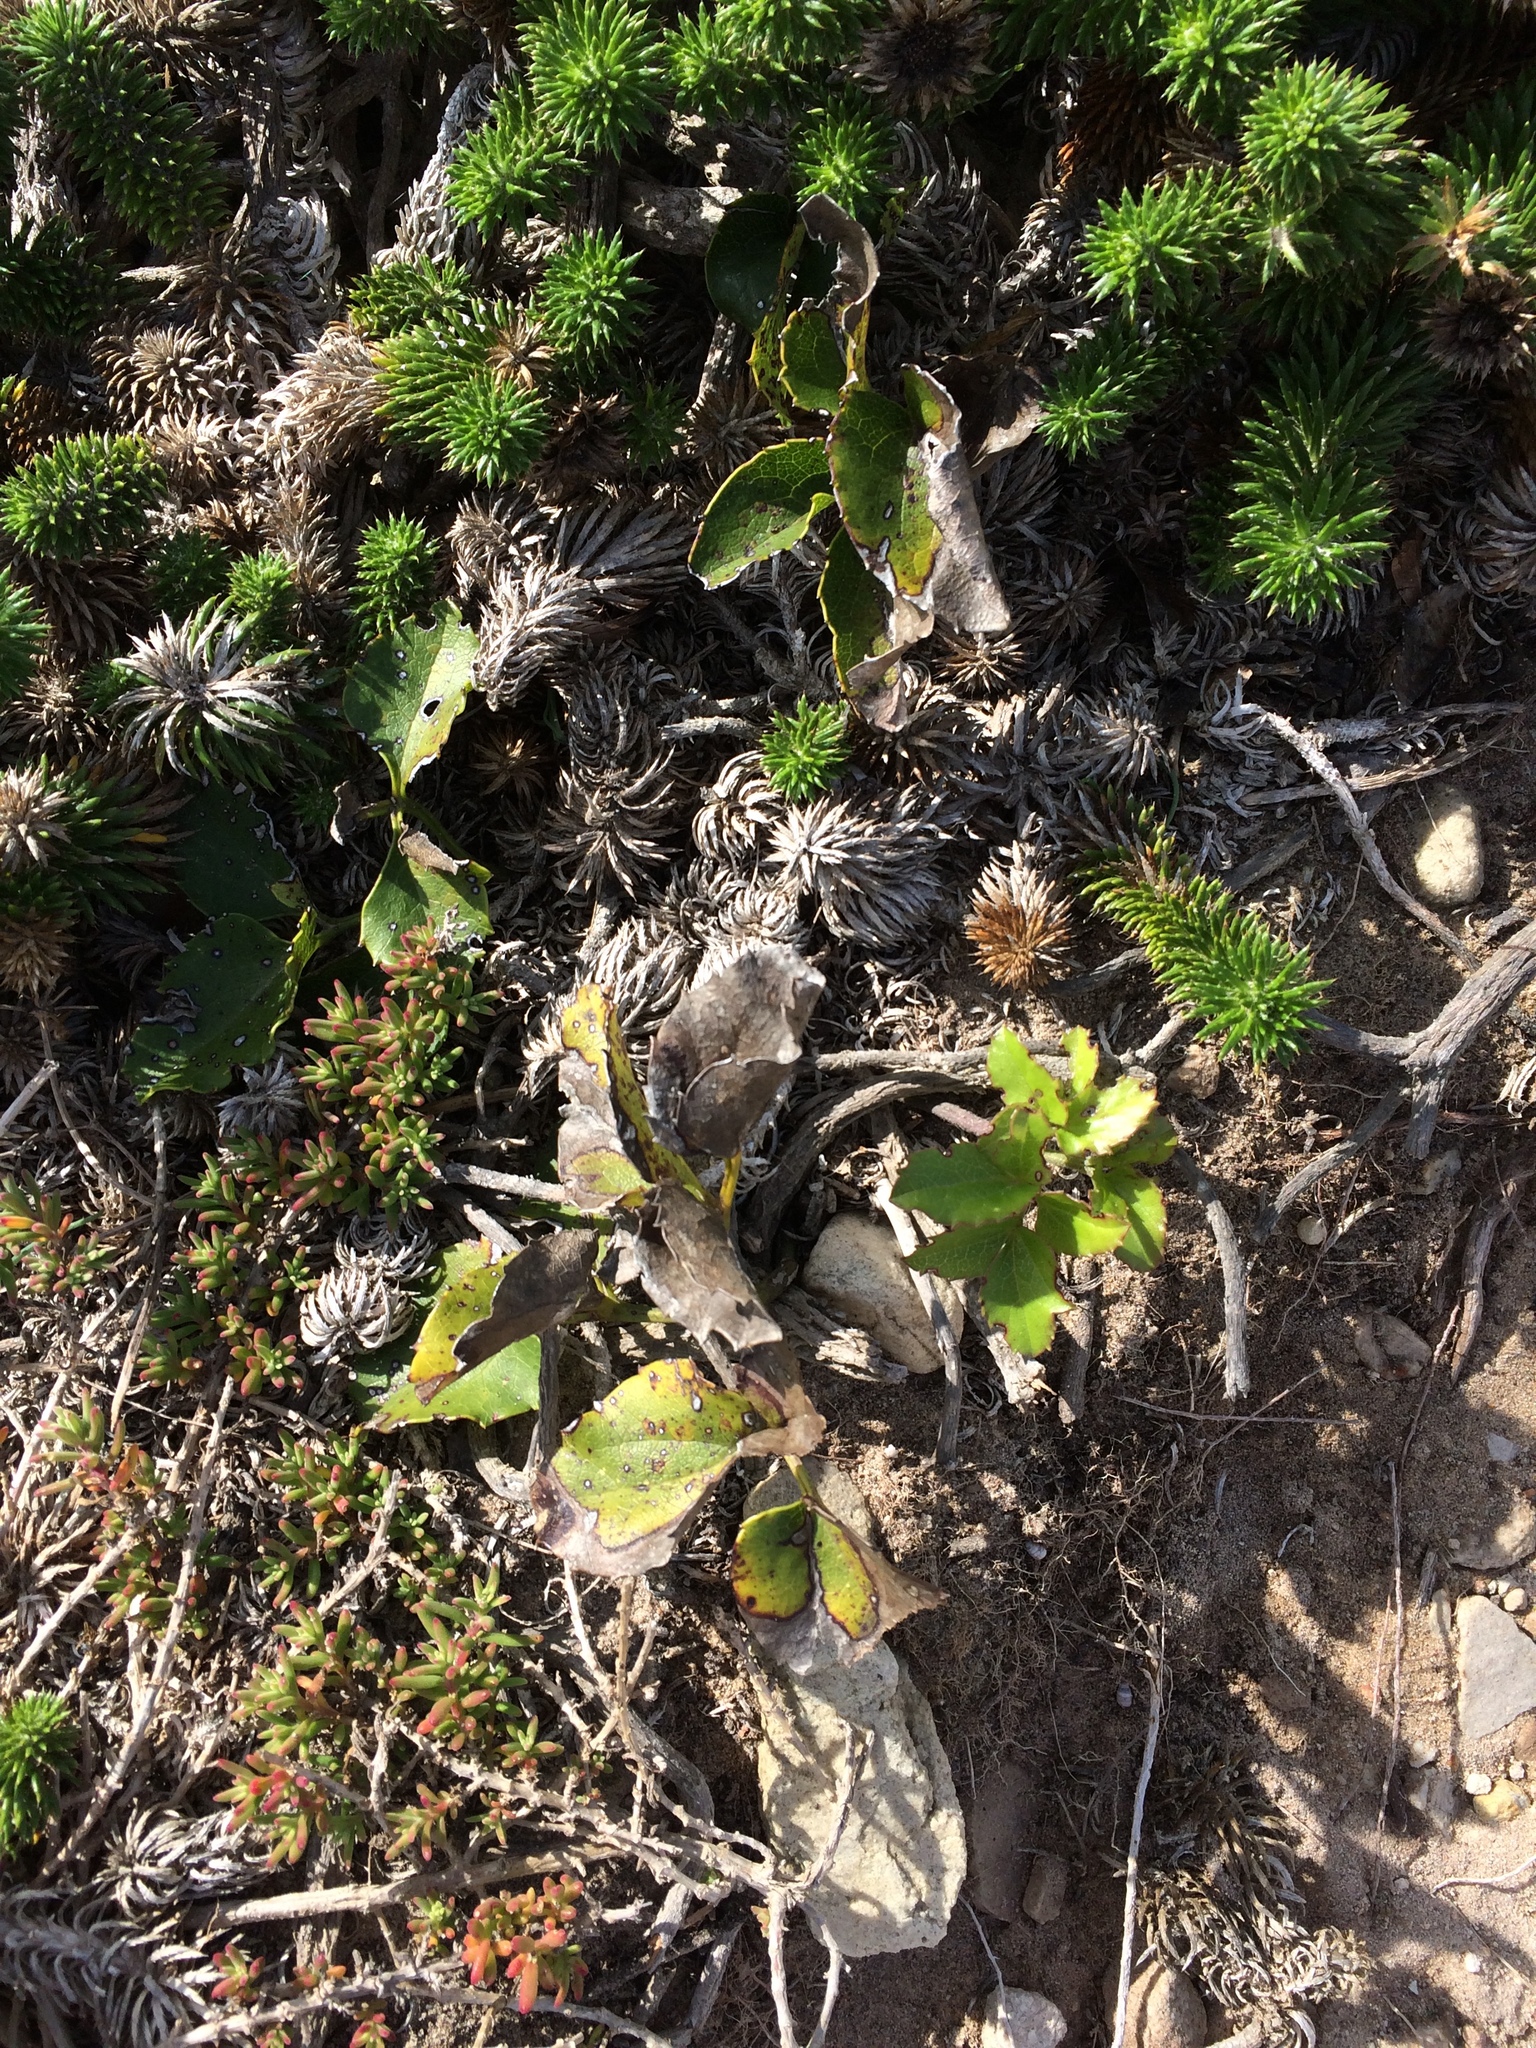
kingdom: Plantae
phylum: Tracheophyta
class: Magnoliopsida
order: Ranunculales
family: Ranunculaceae
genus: Knowltonia
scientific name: Knowltonia vesicatoria
